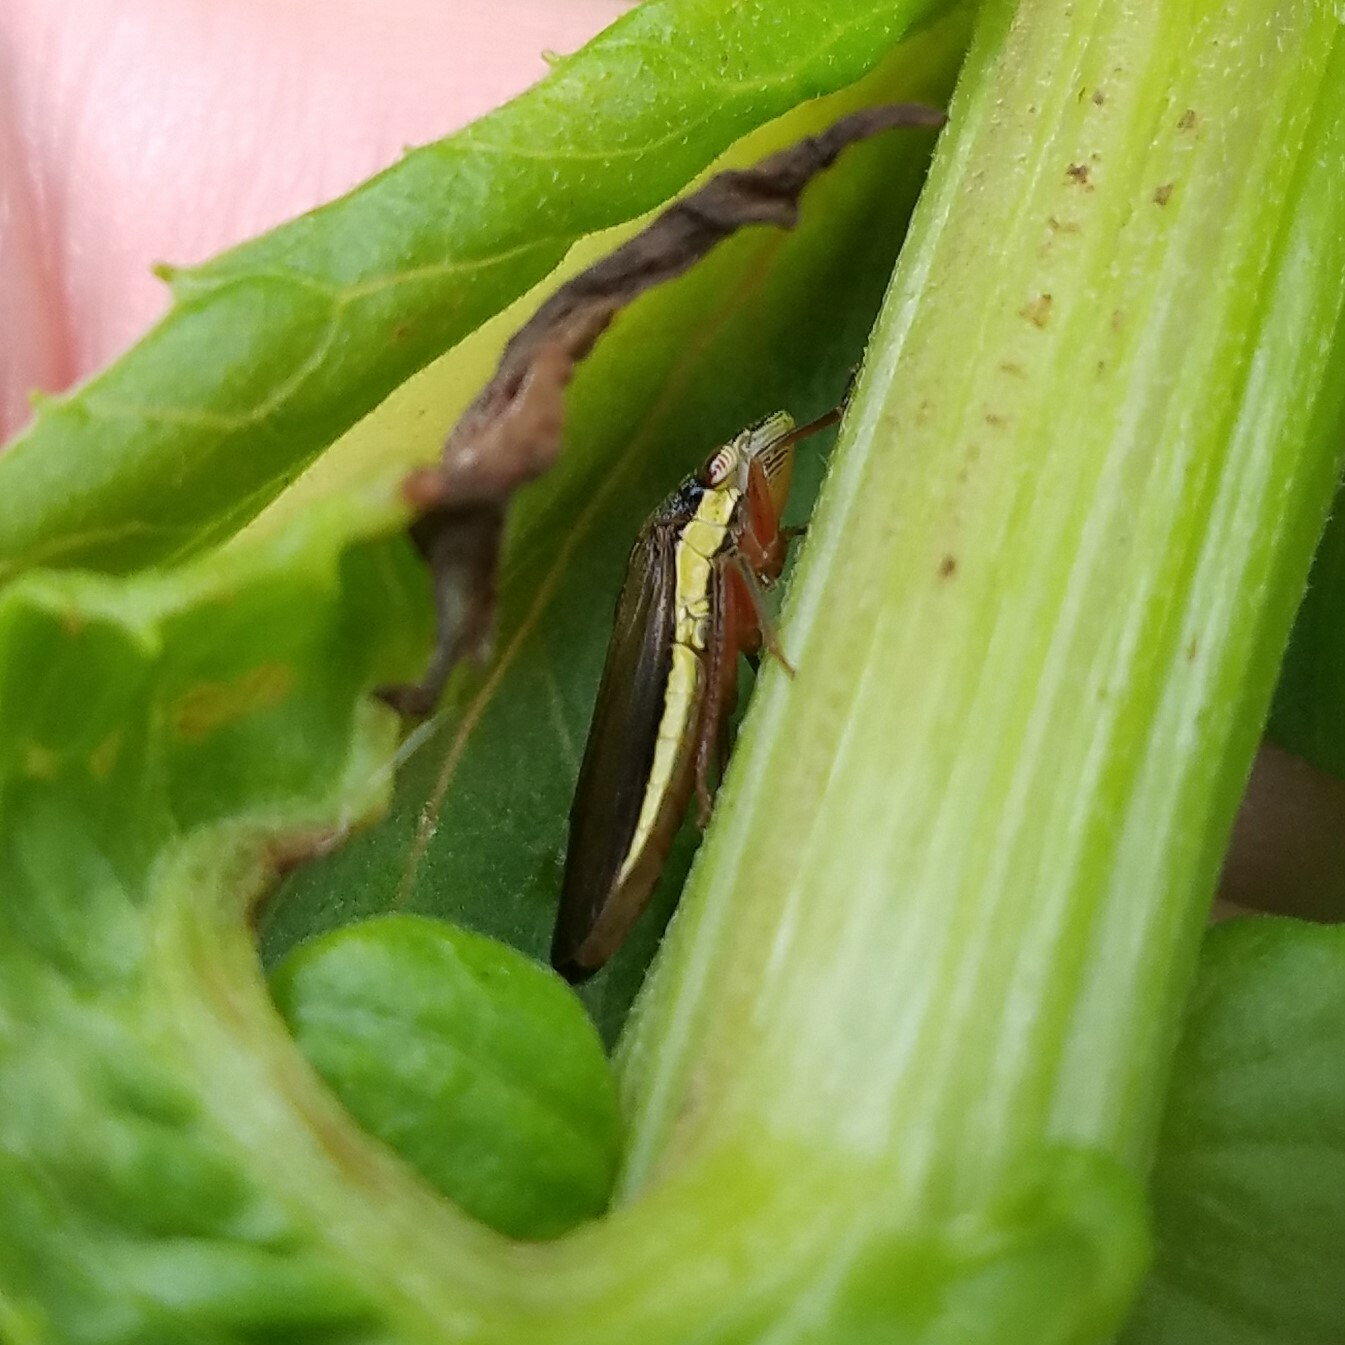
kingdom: Animalia
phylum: Arthropoda
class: Insecta
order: Hemiptera
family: Cicadellidae
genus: Homalodisca
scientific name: Homalodisca insolita
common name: Johnson grass sharpshooter
